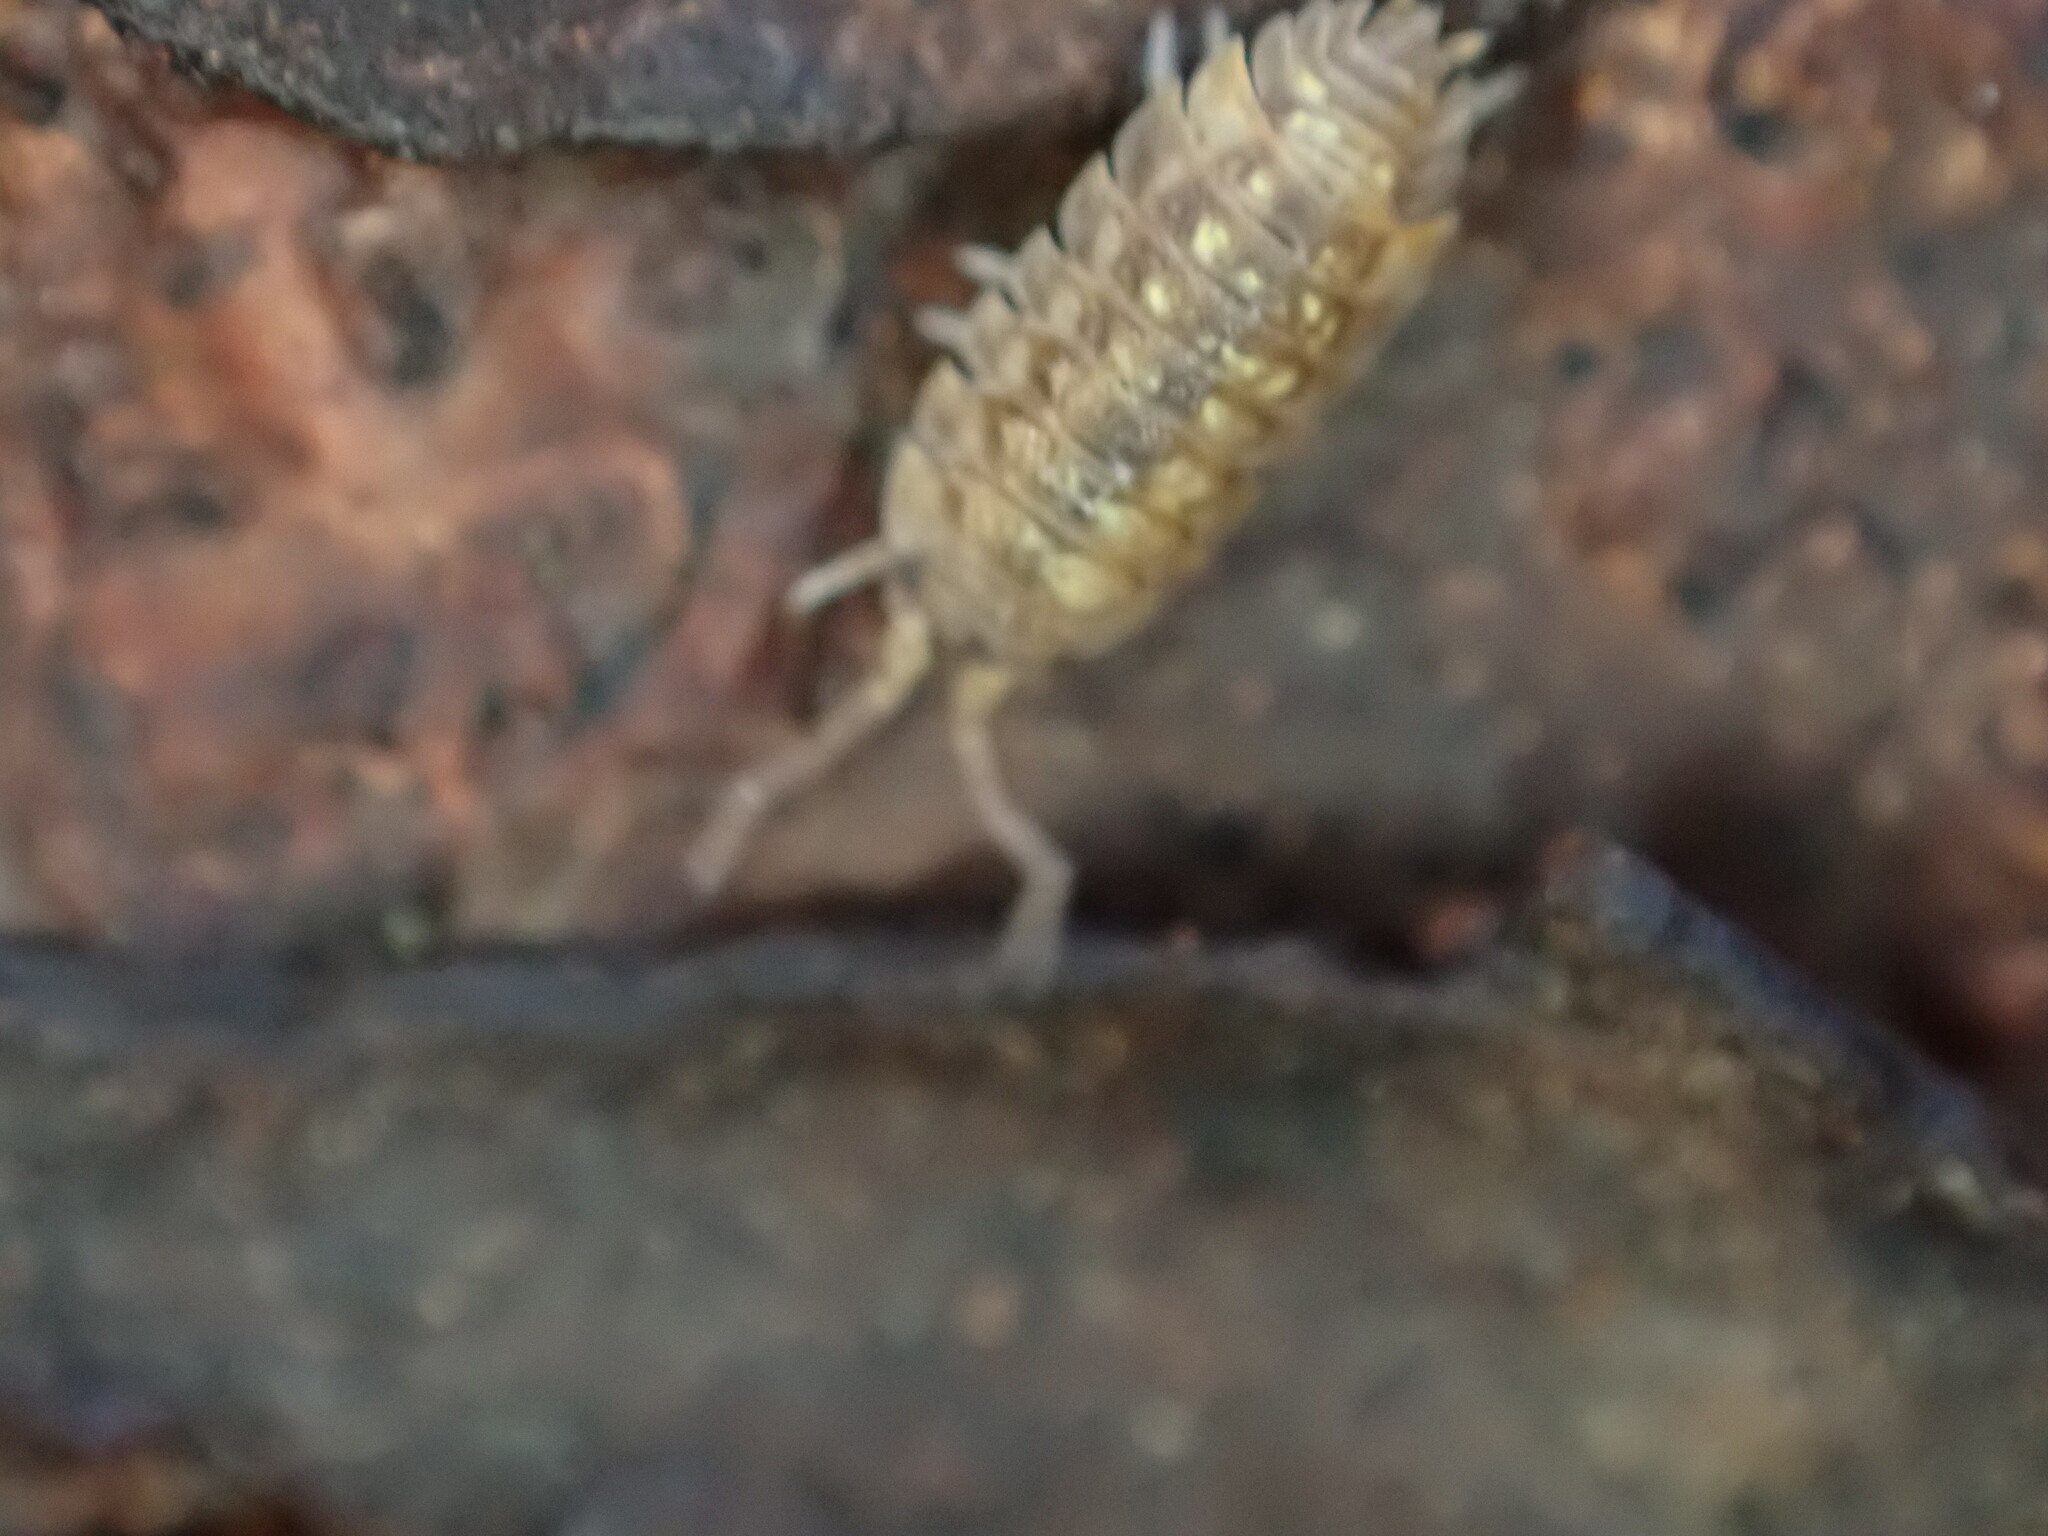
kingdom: Animalia
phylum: Arthropoda
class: Malacostraca
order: Isopoda
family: Oniscidae
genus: Oniscus
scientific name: Oniscus asellus
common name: Common shiny woodlouse
